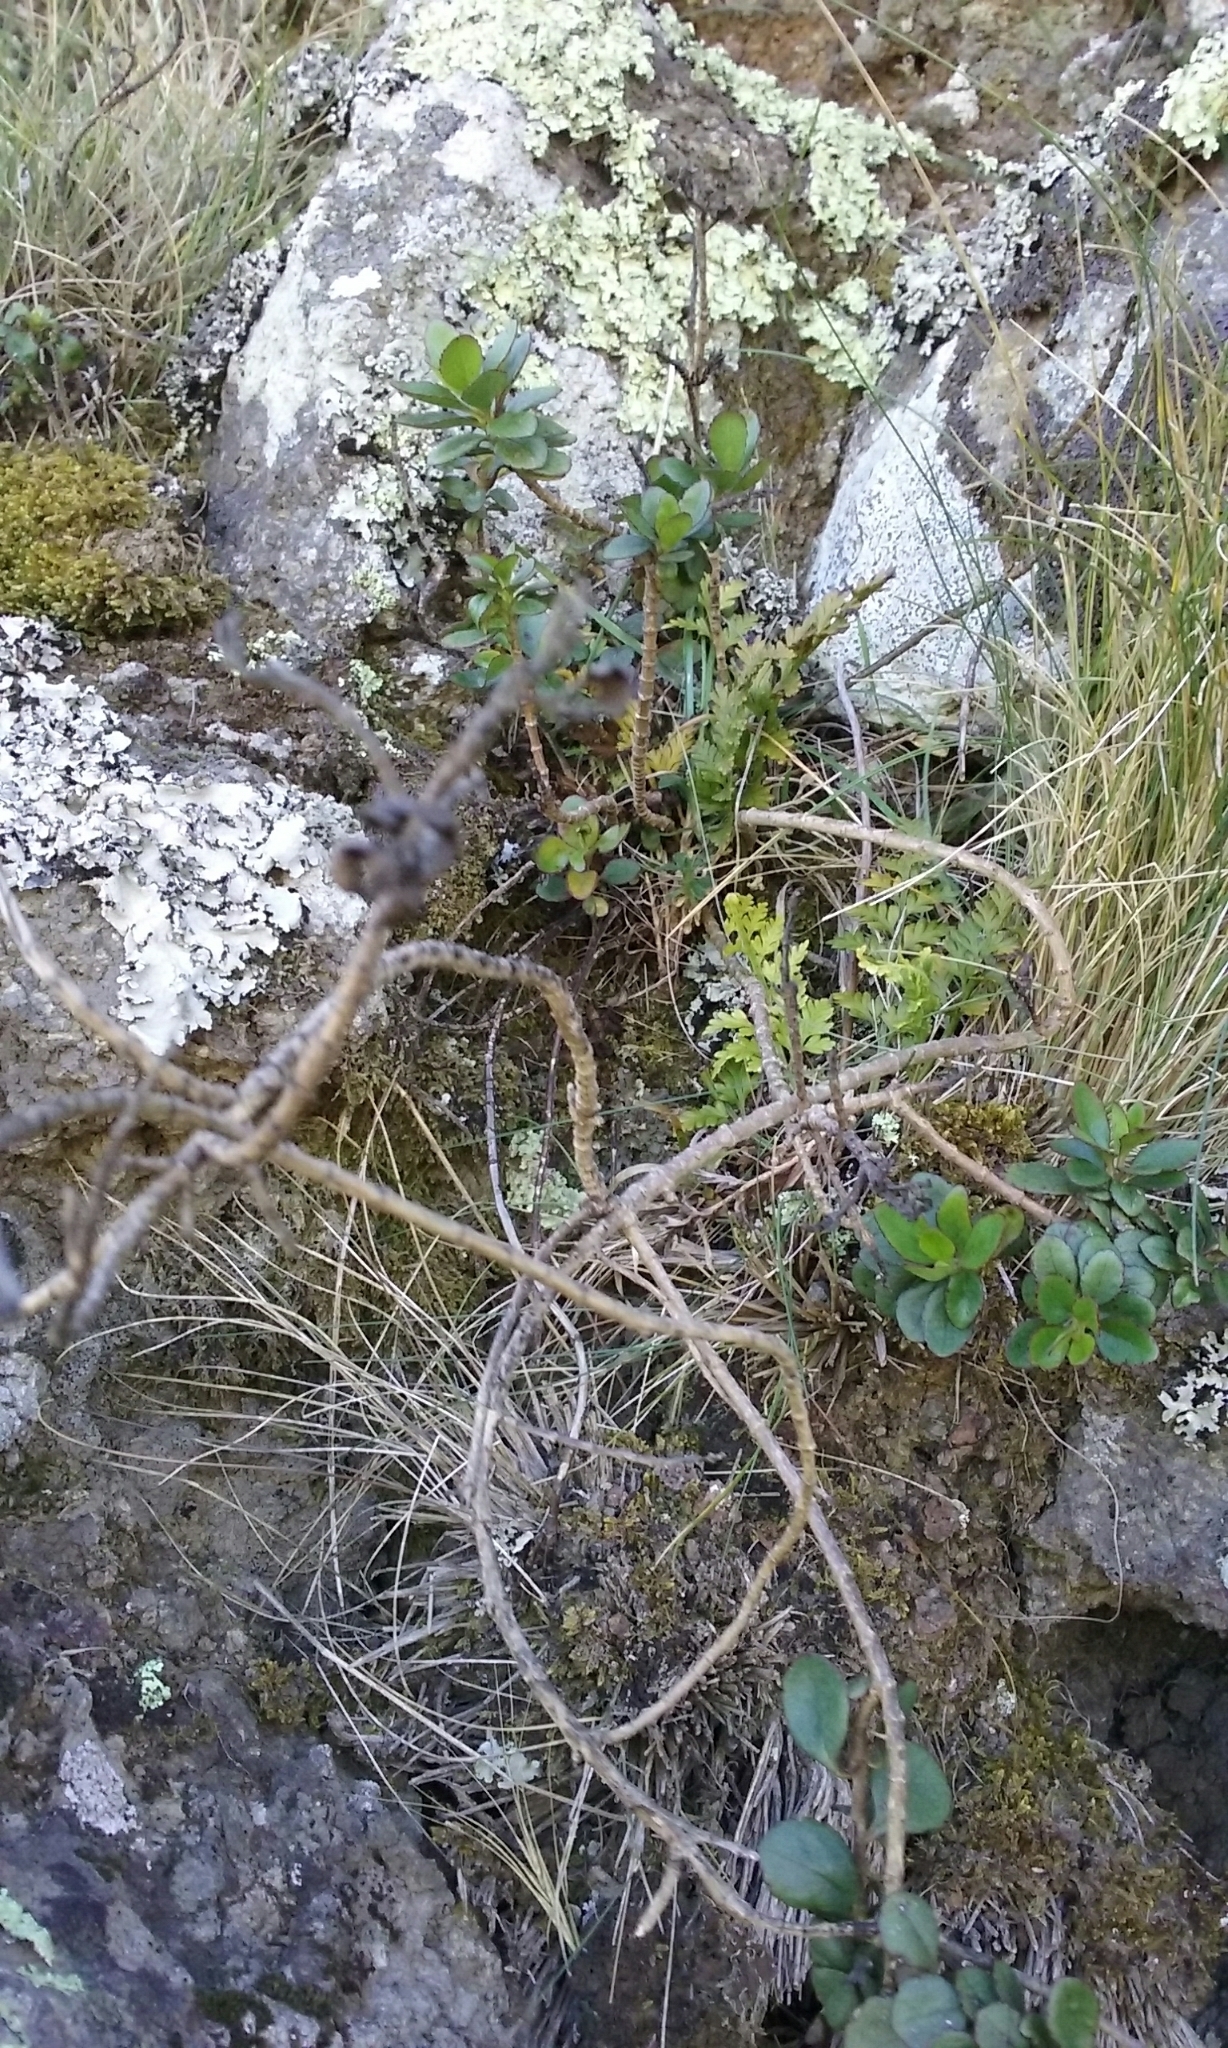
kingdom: Plantae
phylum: Tracheophyta
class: Magnoliopsida
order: Lamiales
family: Plantaginaceae
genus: Veronica
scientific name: Veronica lavaudiana
